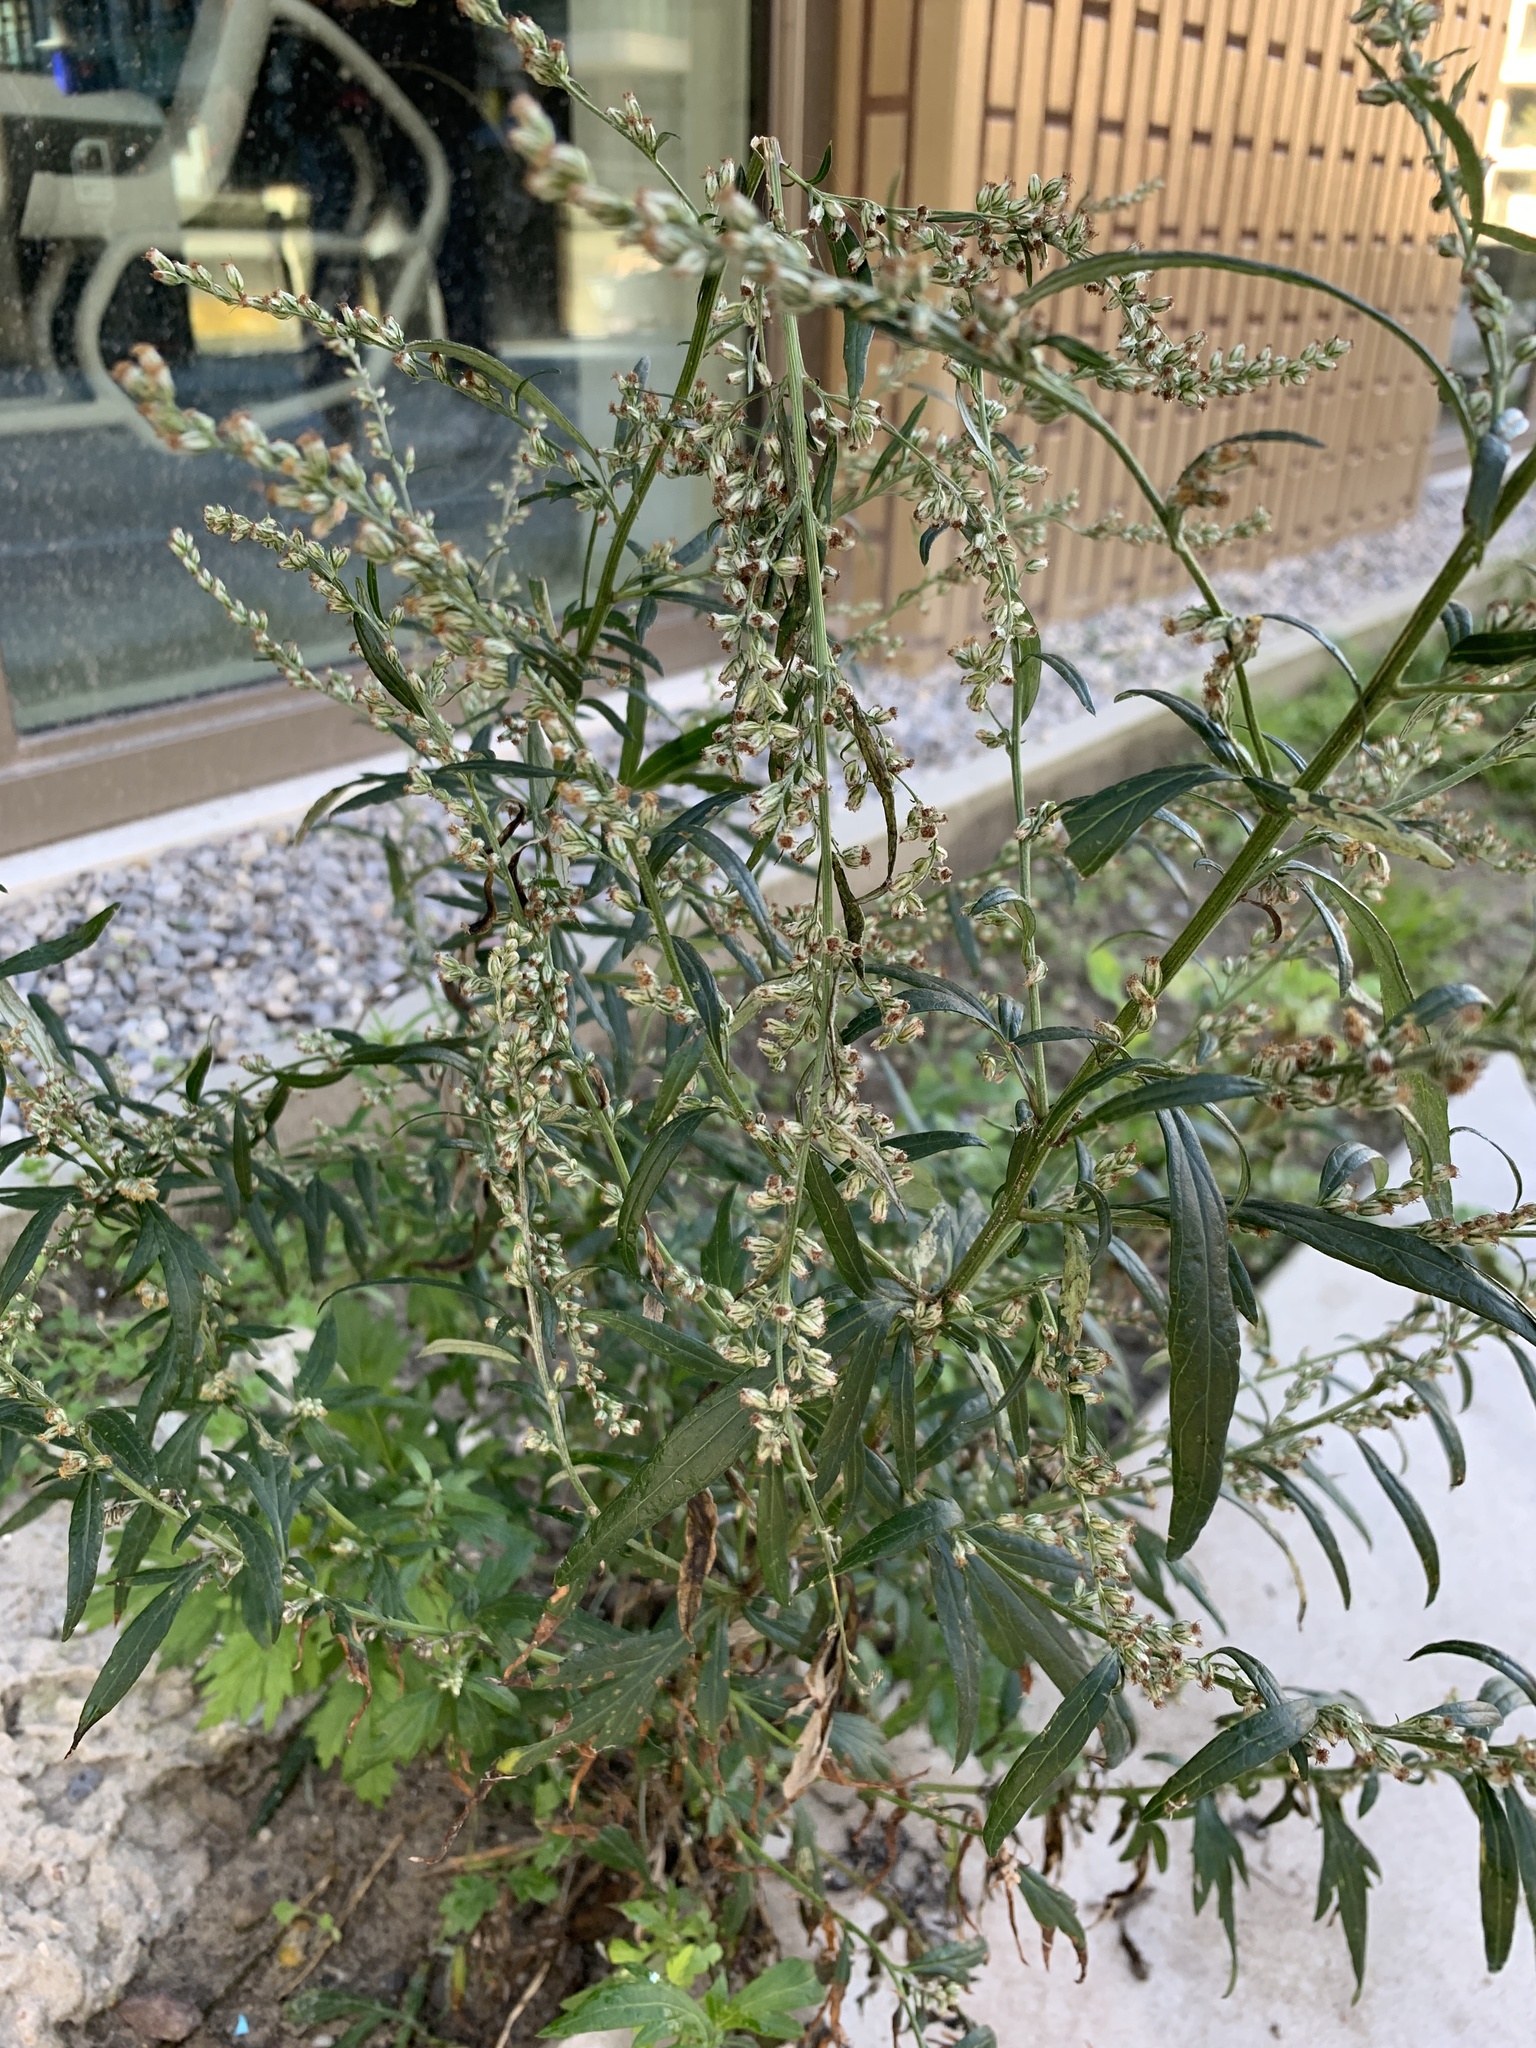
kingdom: Plantae
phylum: Tracheophyta
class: Magnoliopsida
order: Asterales
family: Asteraceae
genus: Artemisia
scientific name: Artemisia vulgaris
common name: Mugwort
